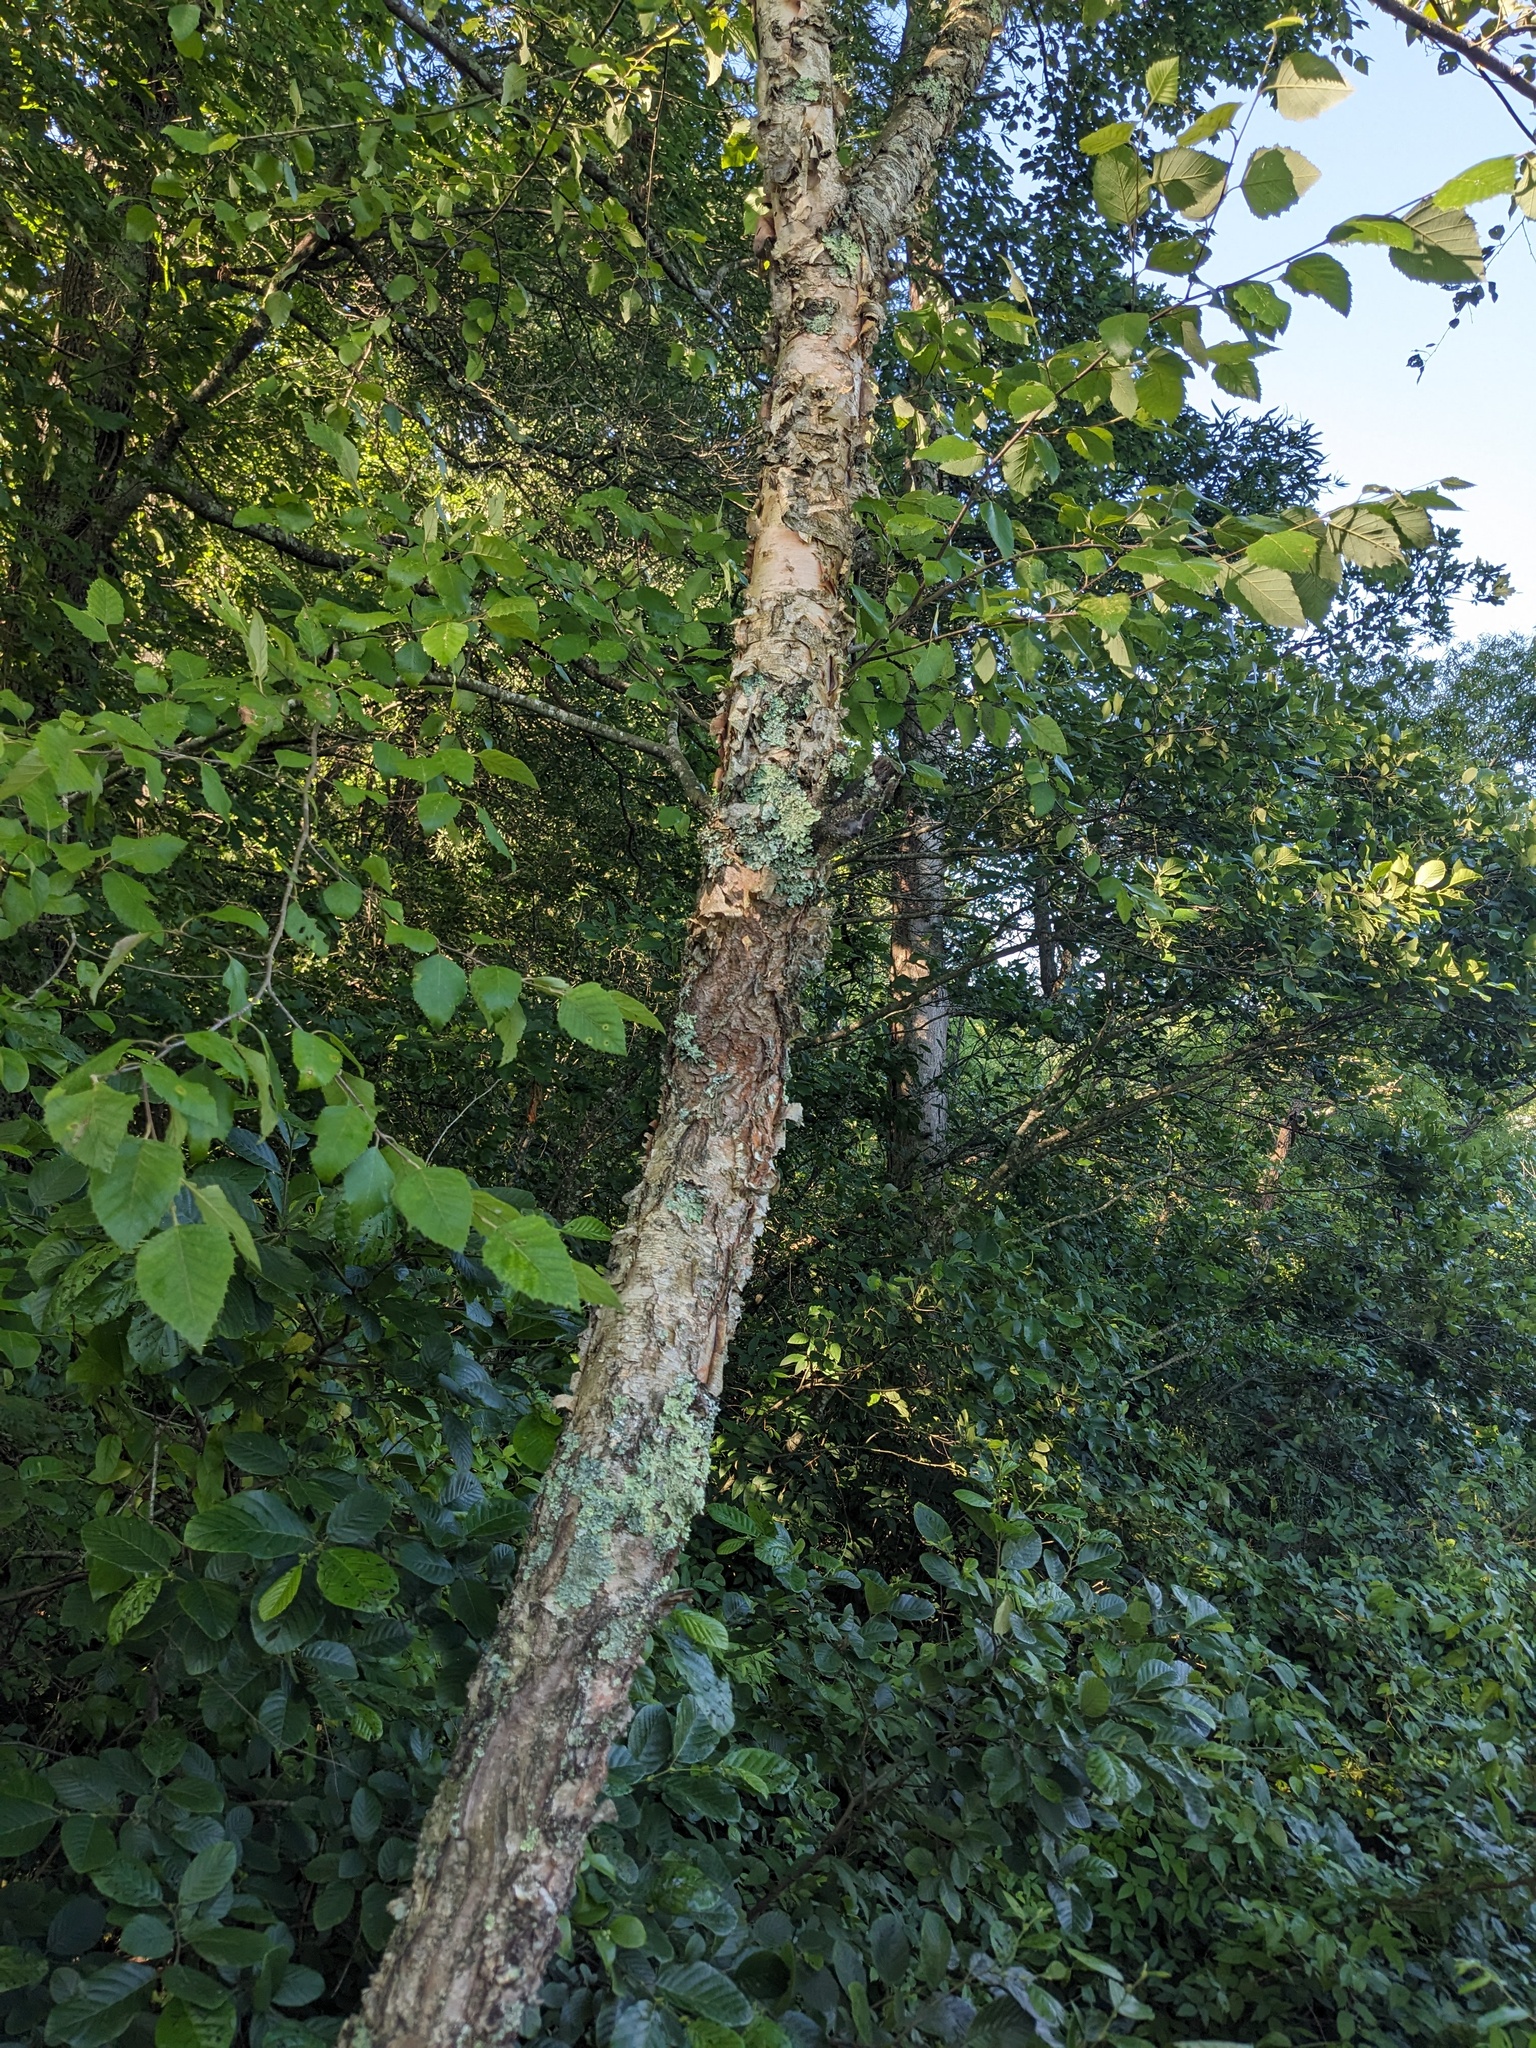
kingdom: Plantae
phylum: Tracheophyta
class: Magnoliopsida
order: Fagales
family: Betulaceae
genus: Betula
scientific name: Betula nigra
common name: Black birch
